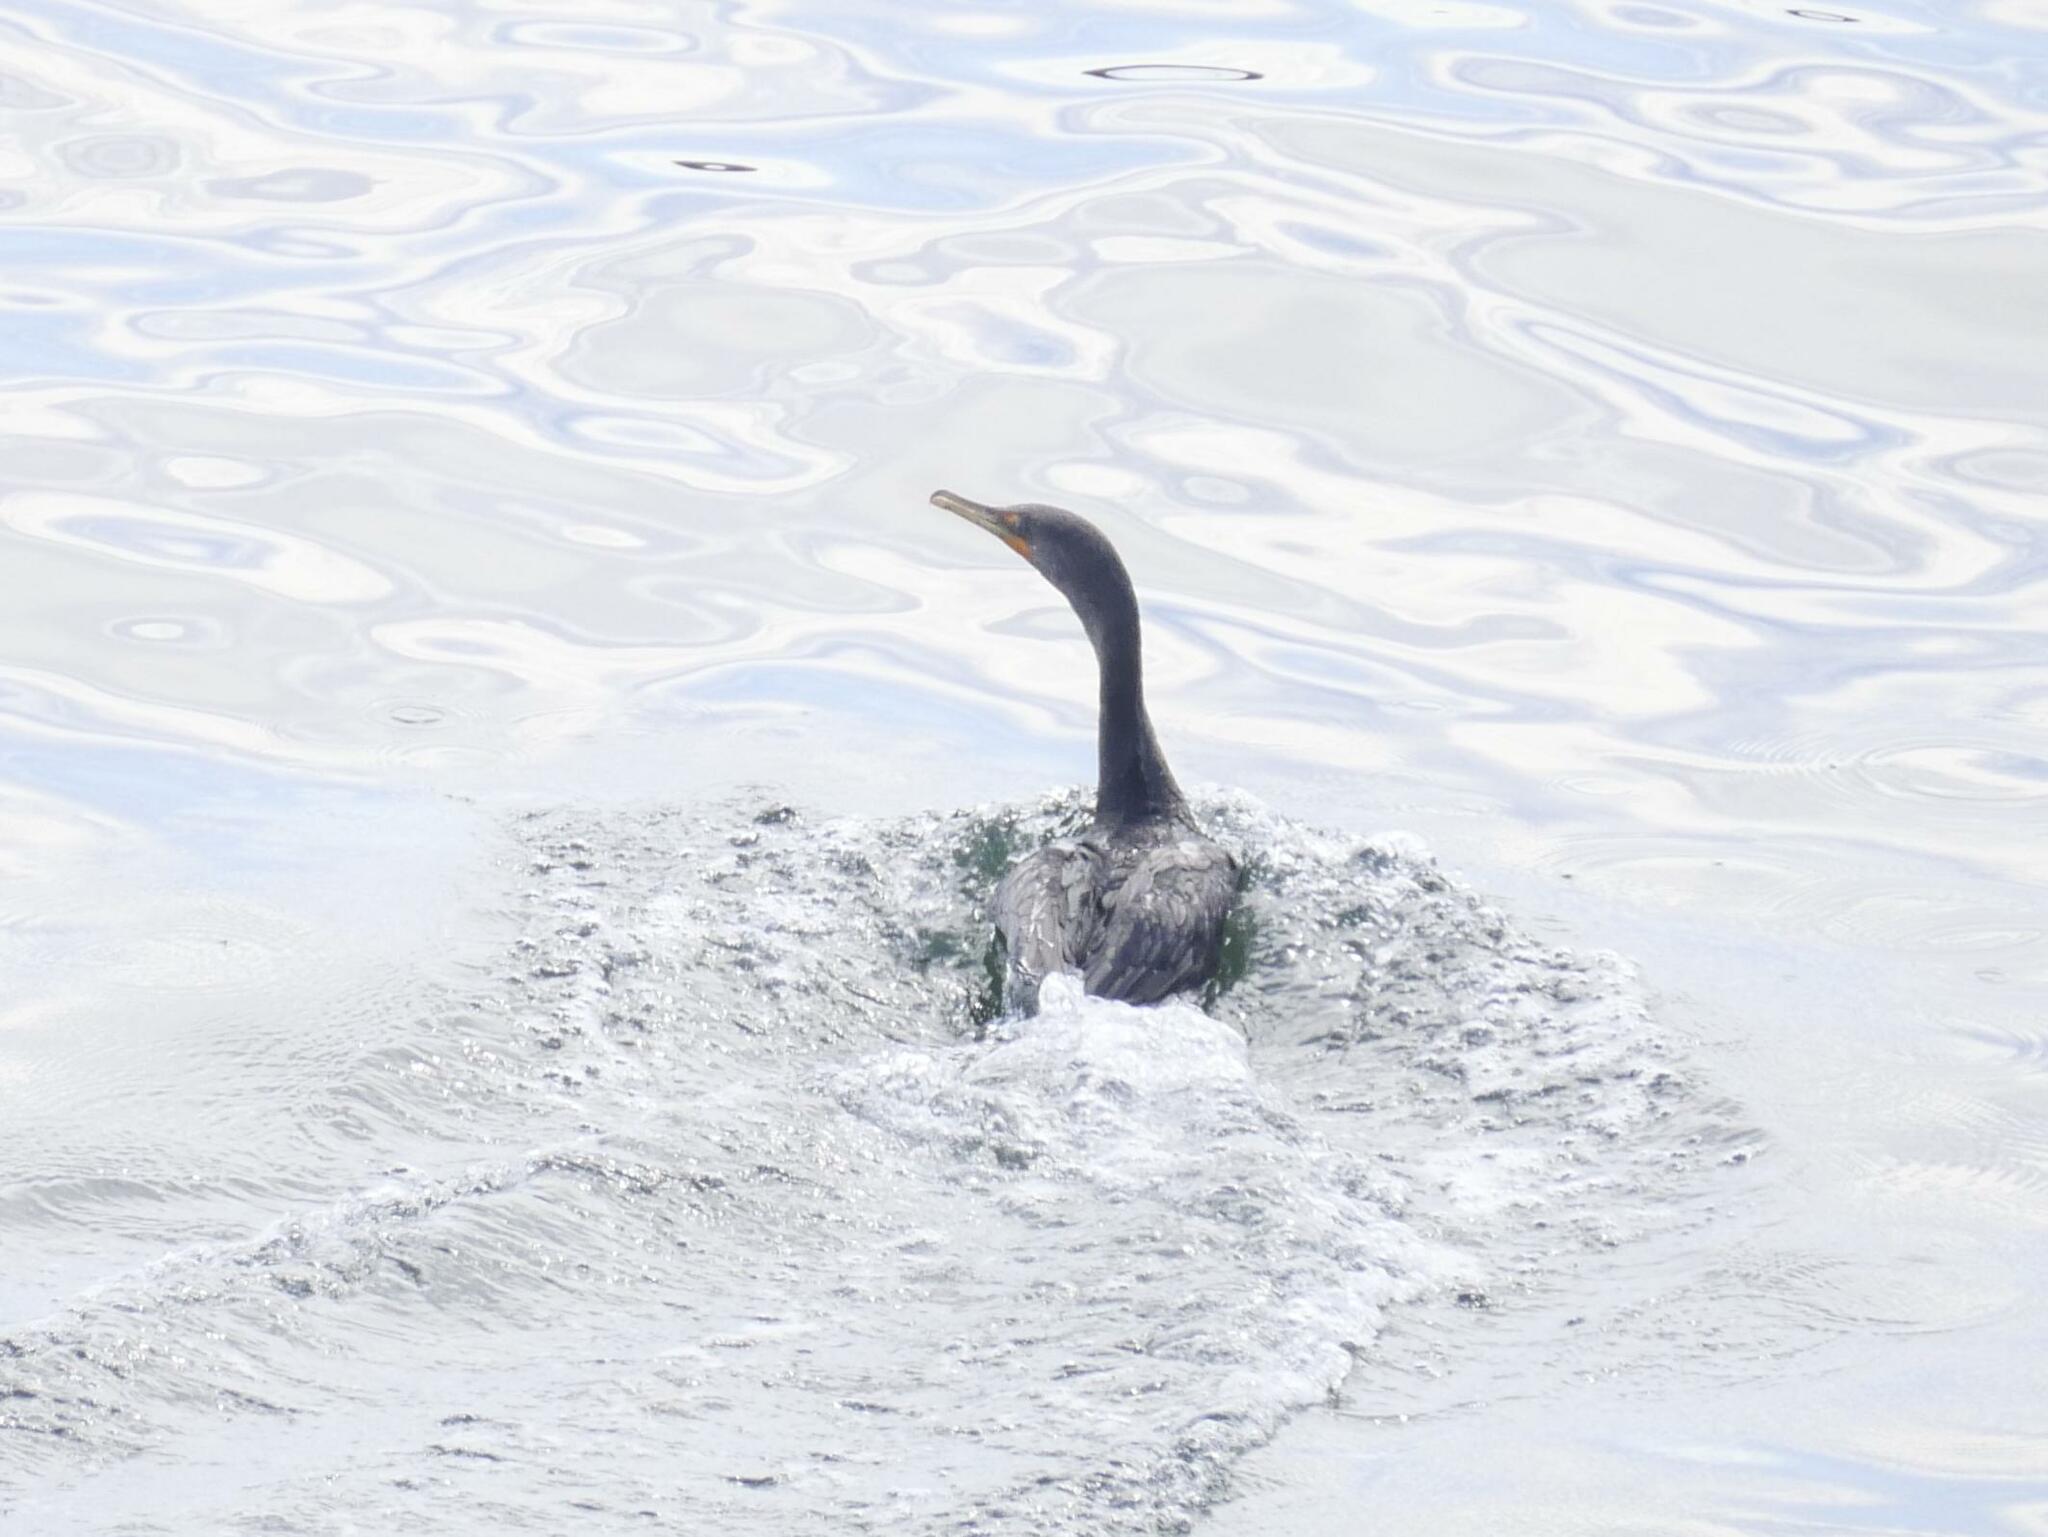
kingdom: Animalia
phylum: Chordata
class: Aves
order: Suliformes
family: Phalacrocoracidae
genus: Phalacrocorax
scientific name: Phalacrocorax auritus
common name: Double-crested cormorant
